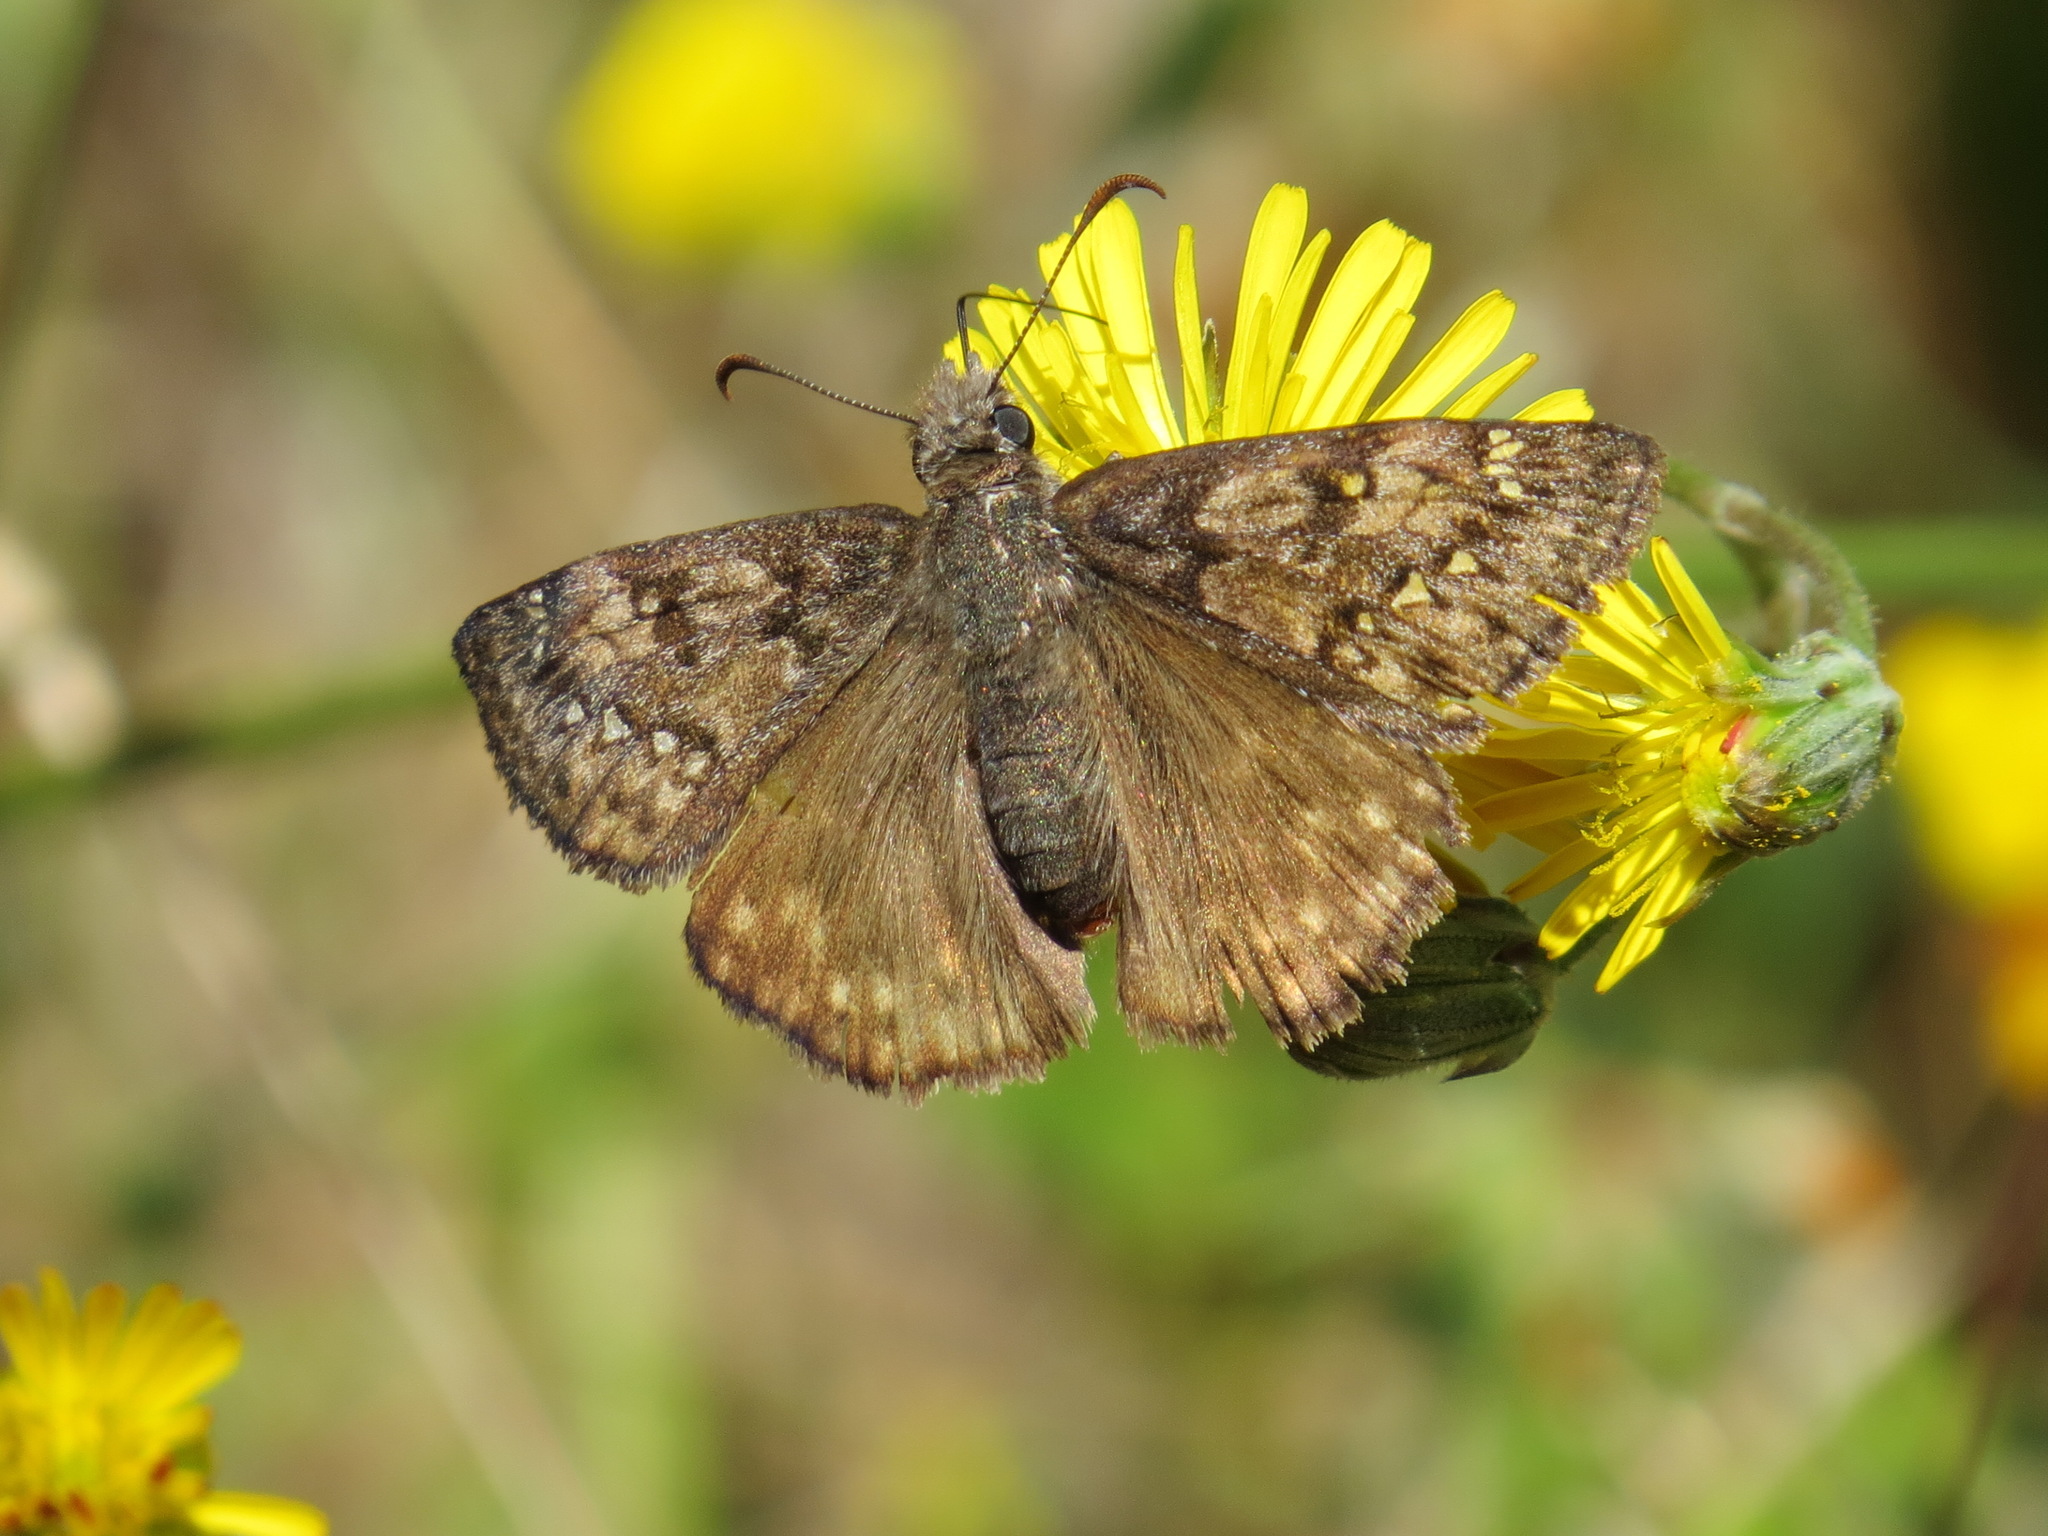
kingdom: Animalia
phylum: Arthropoda
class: Insecta
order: Lepidoptera
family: Hesperiidae
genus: Erynnis
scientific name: Erynnis propertius
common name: Propertius duskywing
